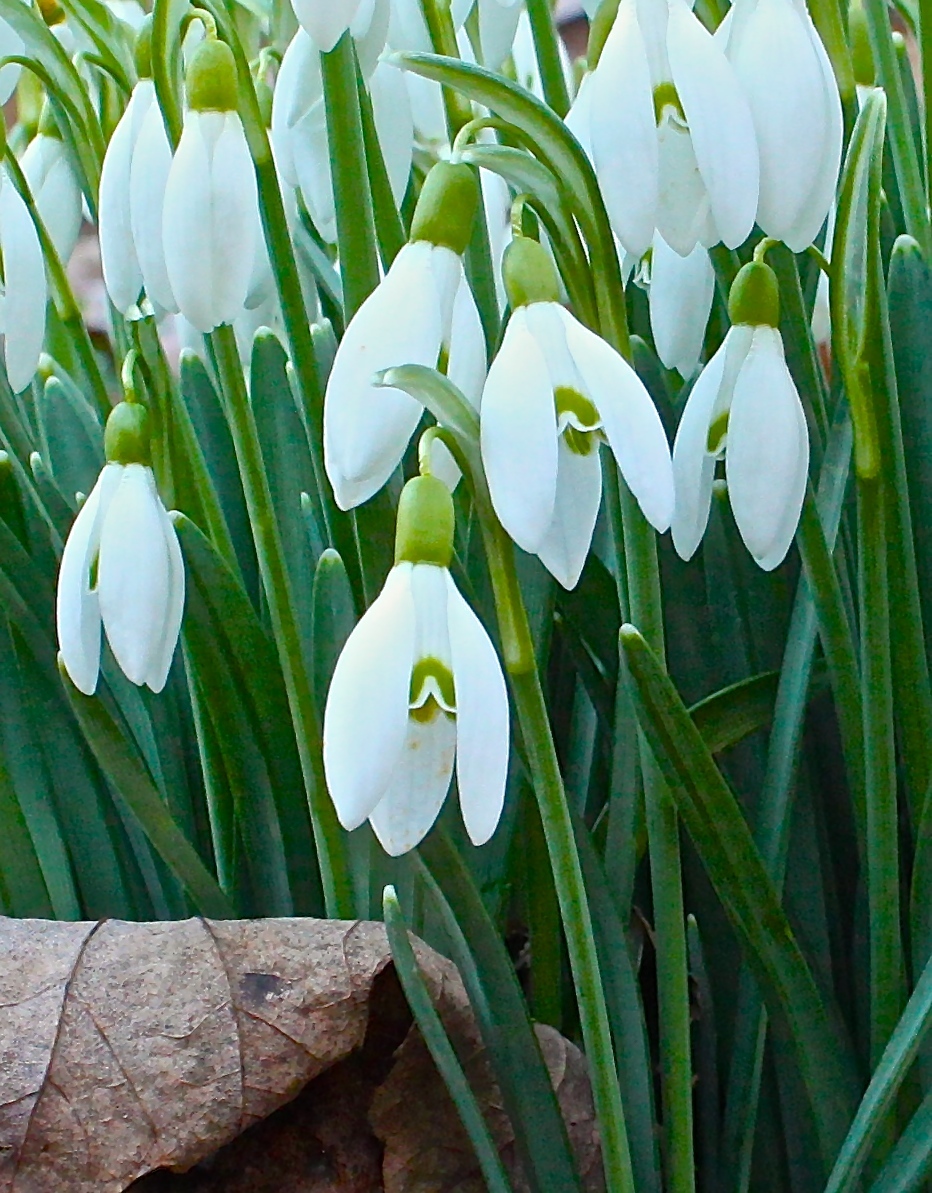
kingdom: Plantae
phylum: Tracheophyta
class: Liliopsida
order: Asparagales
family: Amaryllidaceae
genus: Galanthus
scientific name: Galanthus nivalis
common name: Snowdrop
